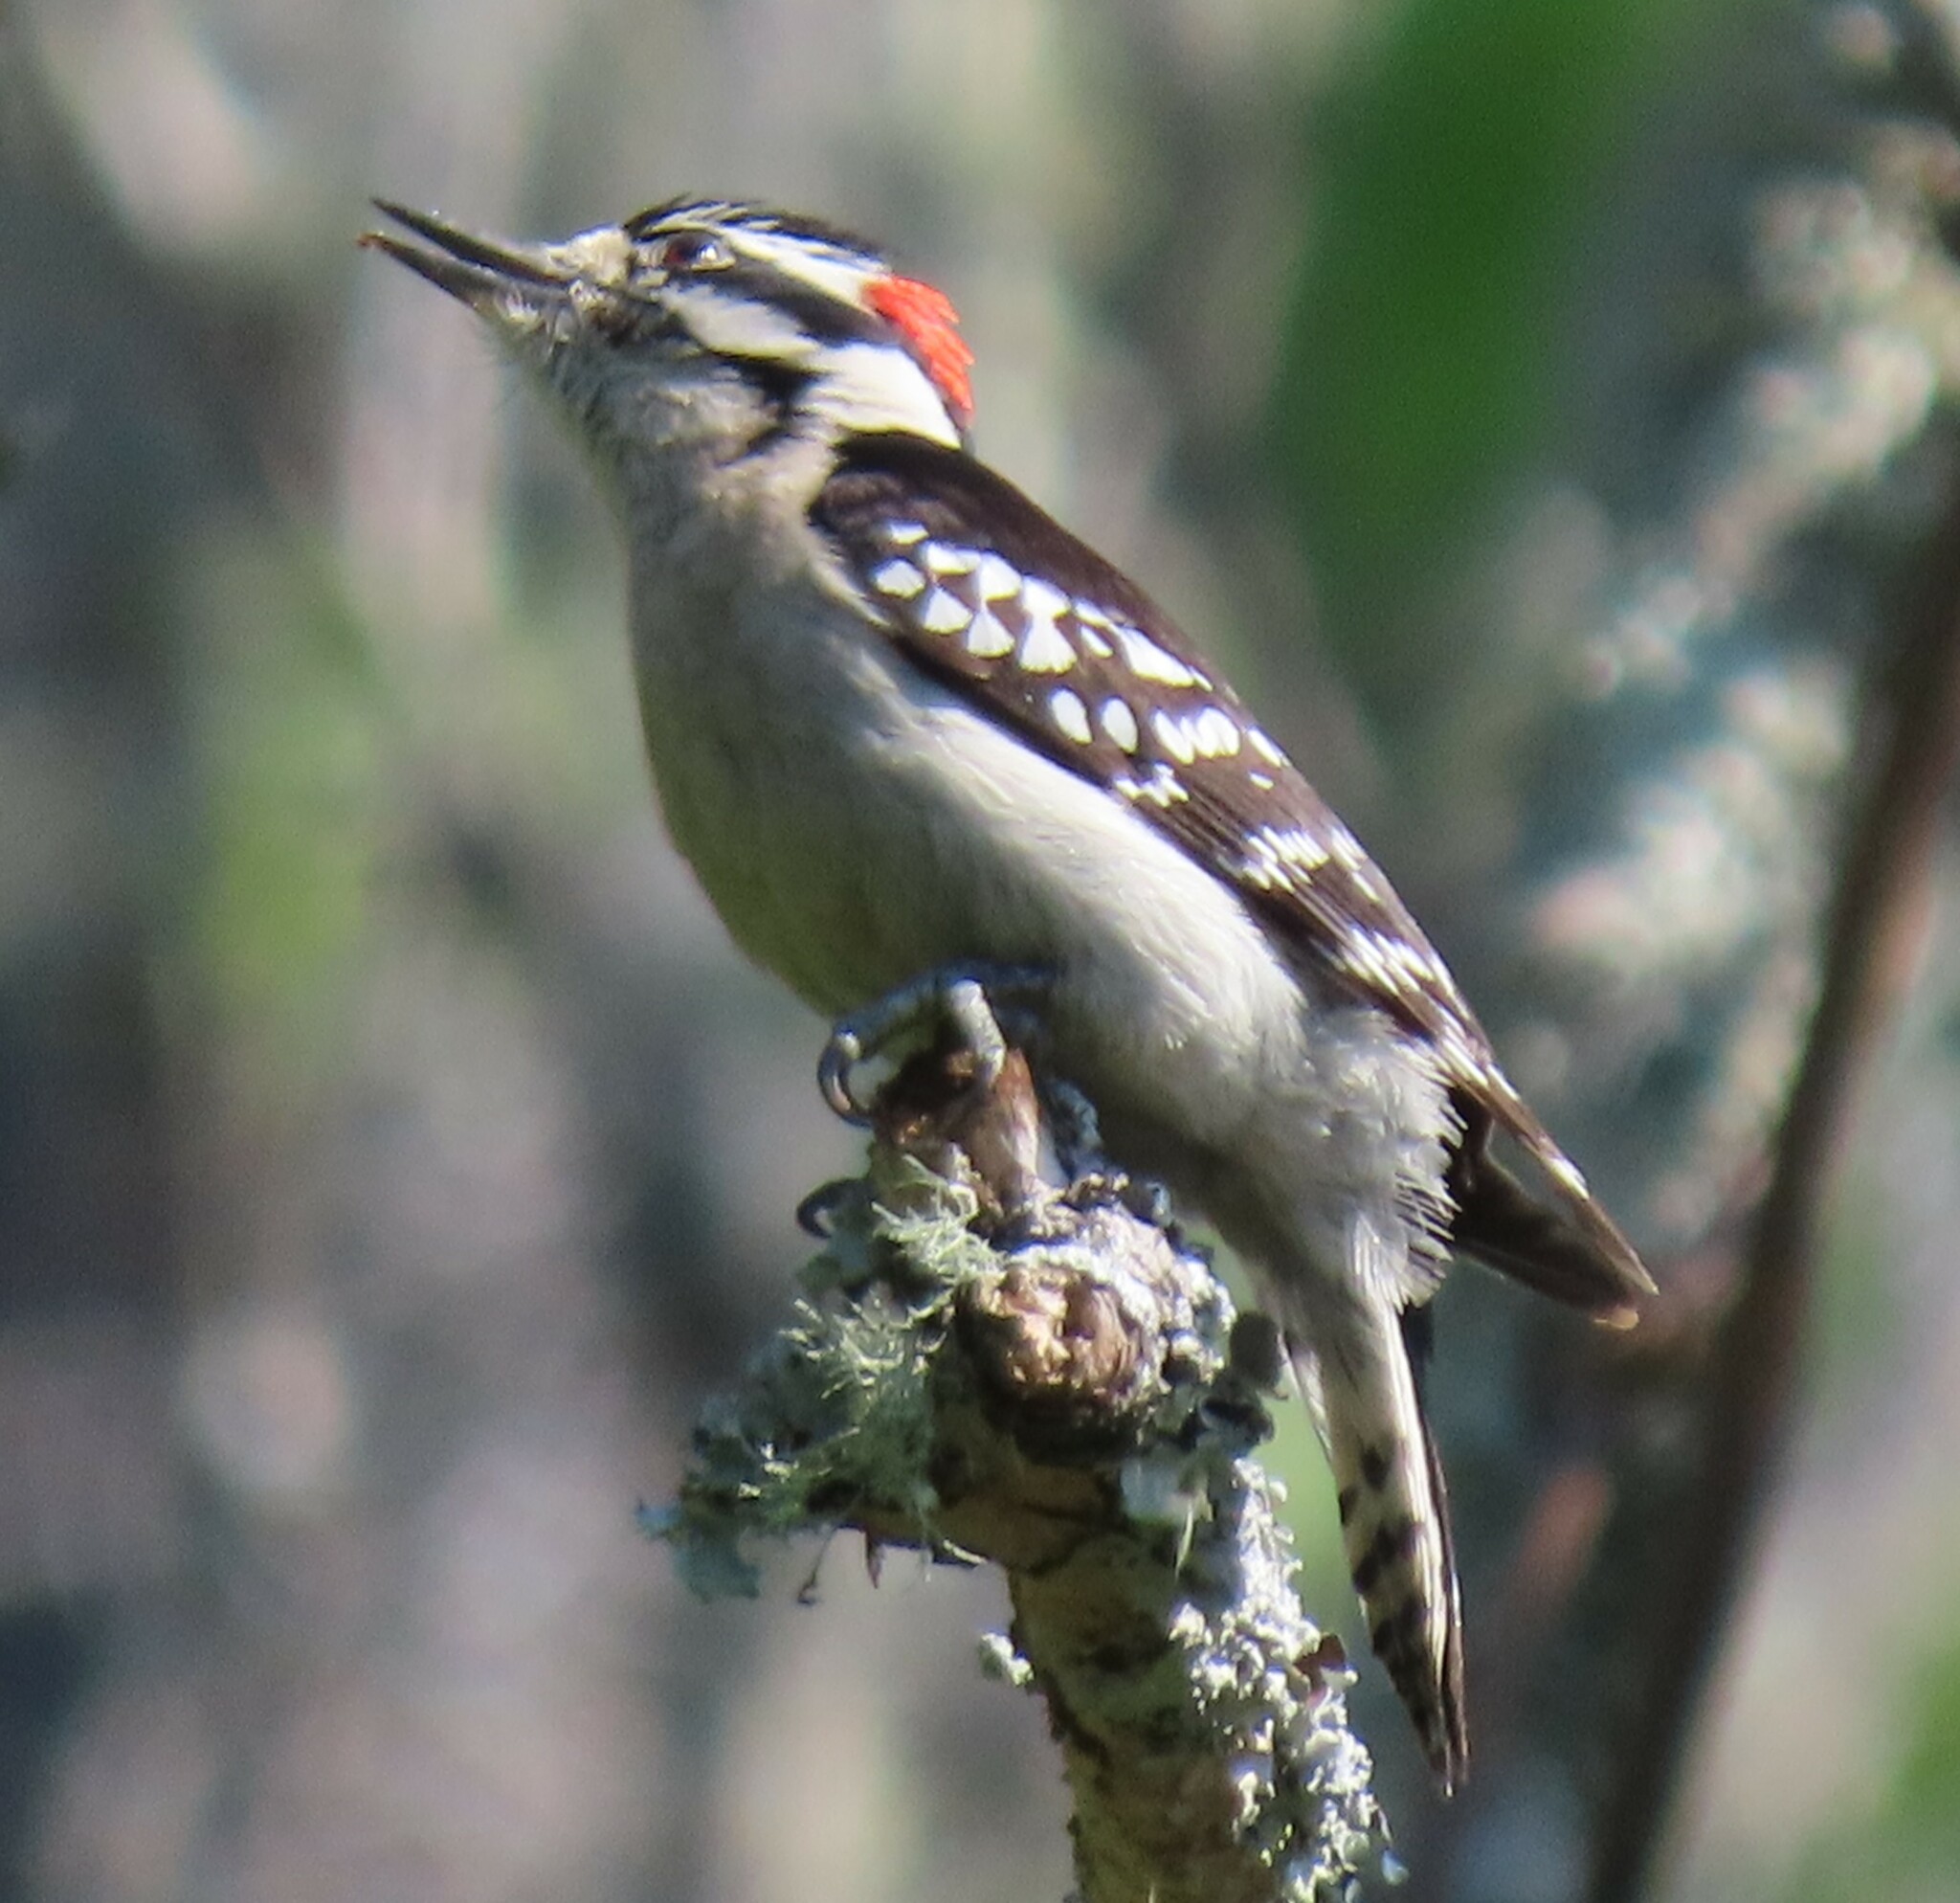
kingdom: Animalia
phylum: Chordata
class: Aves
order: Piciformes
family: Picidae
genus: Dryobates
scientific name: Dryobates pubescens
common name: Downy woodpecker
